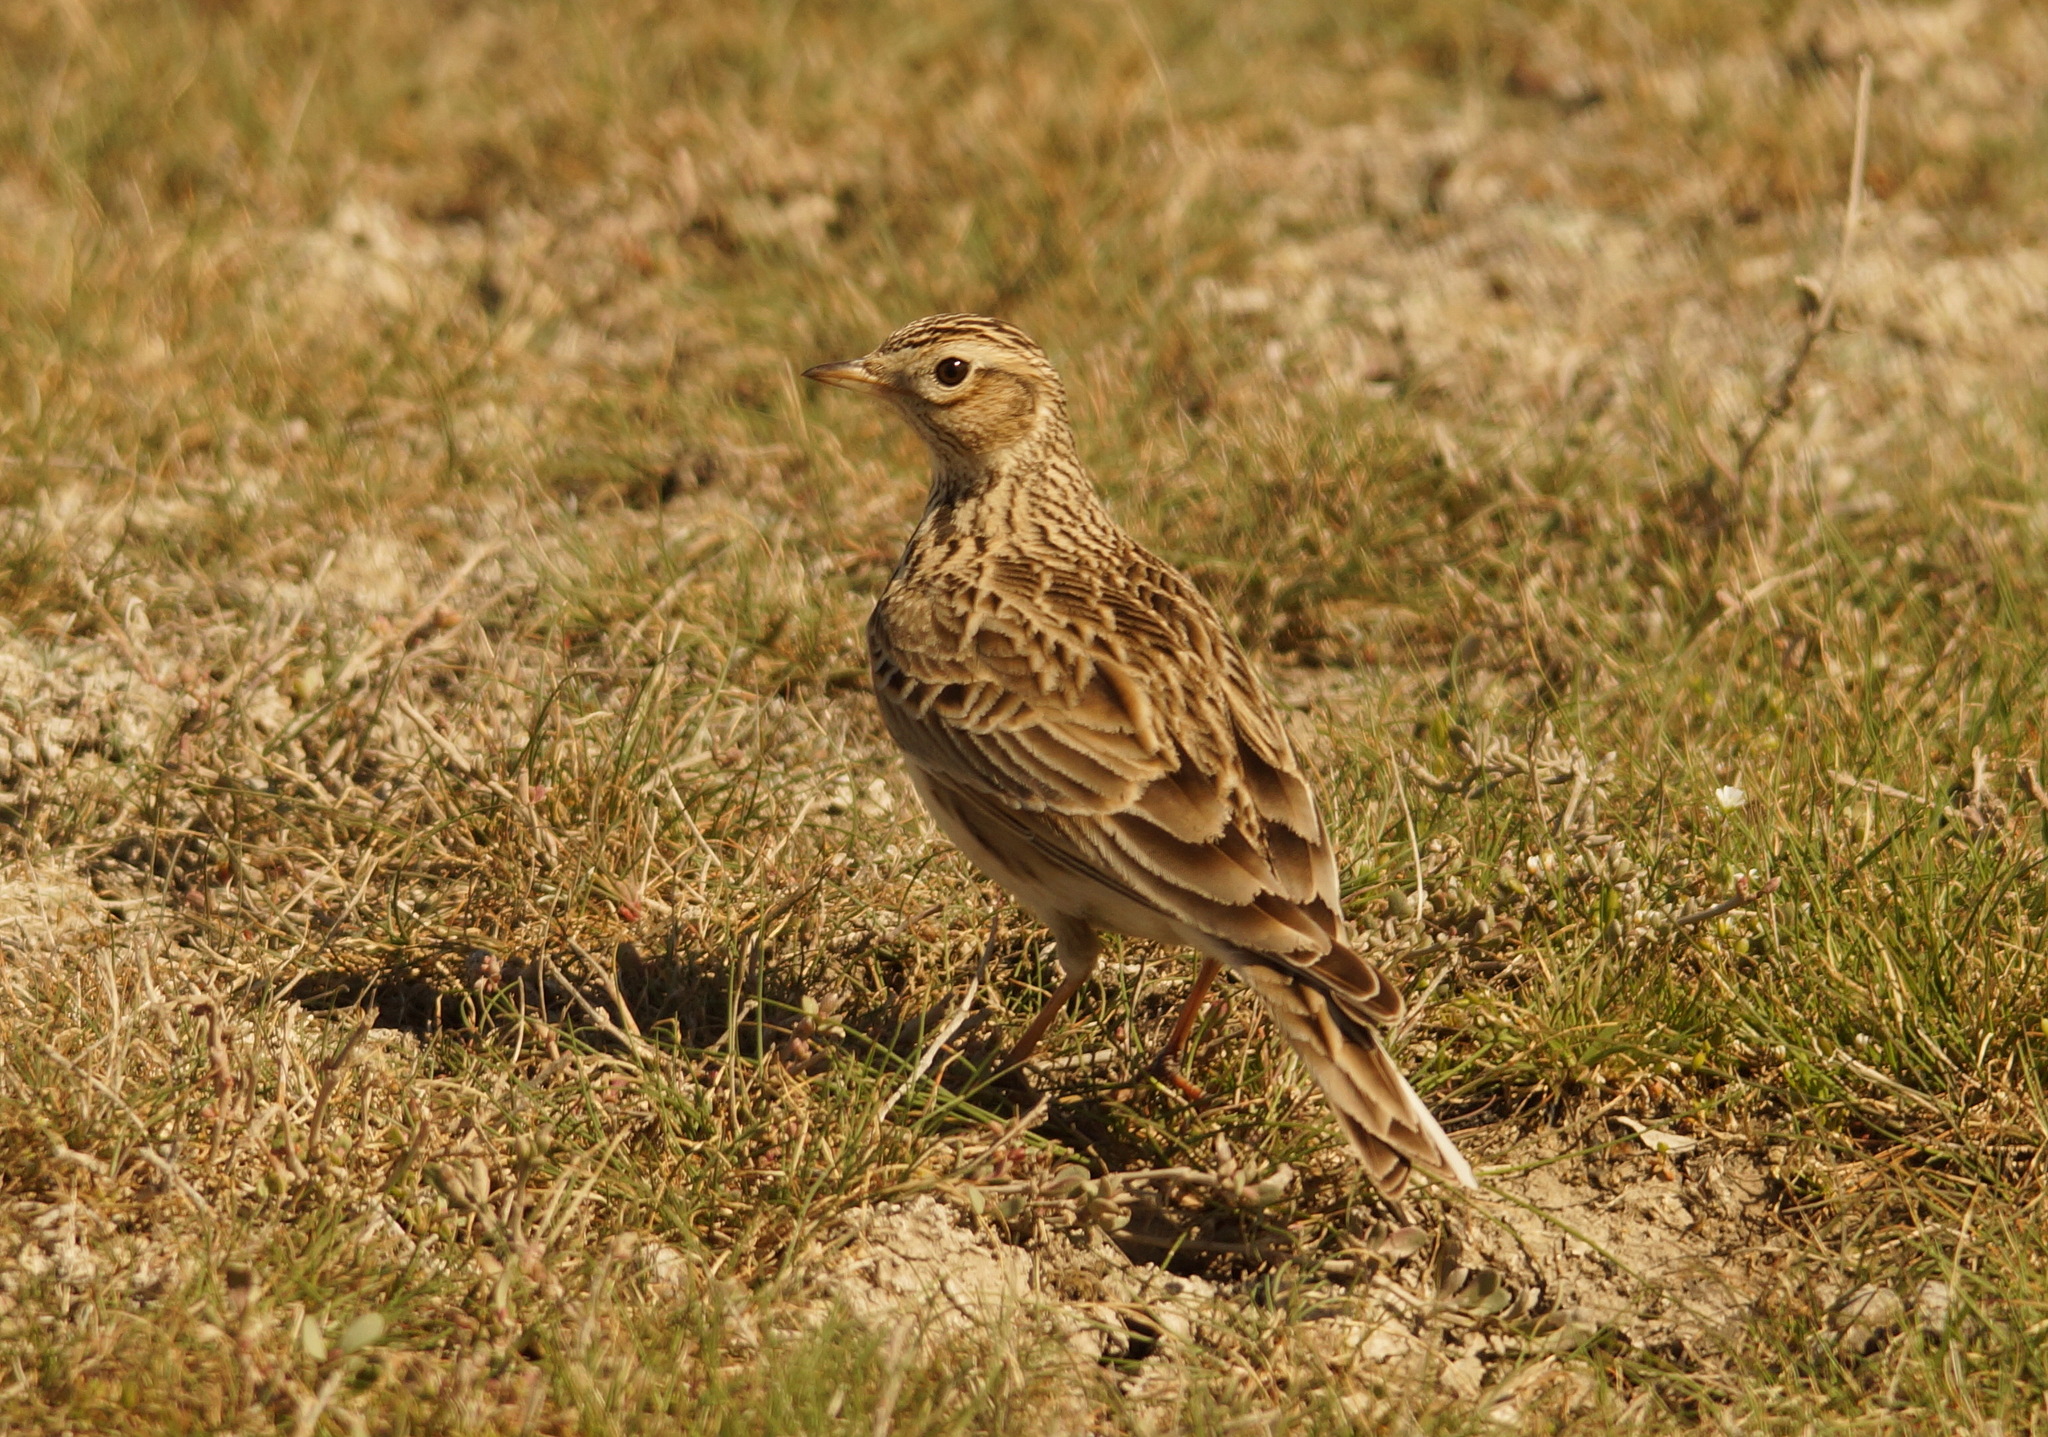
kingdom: Animalia
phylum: Chordata
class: Aves
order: Passeriformes
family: Alaudidae
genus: Alauda
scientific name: Alauda arvensis
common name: Eurasian skylark
